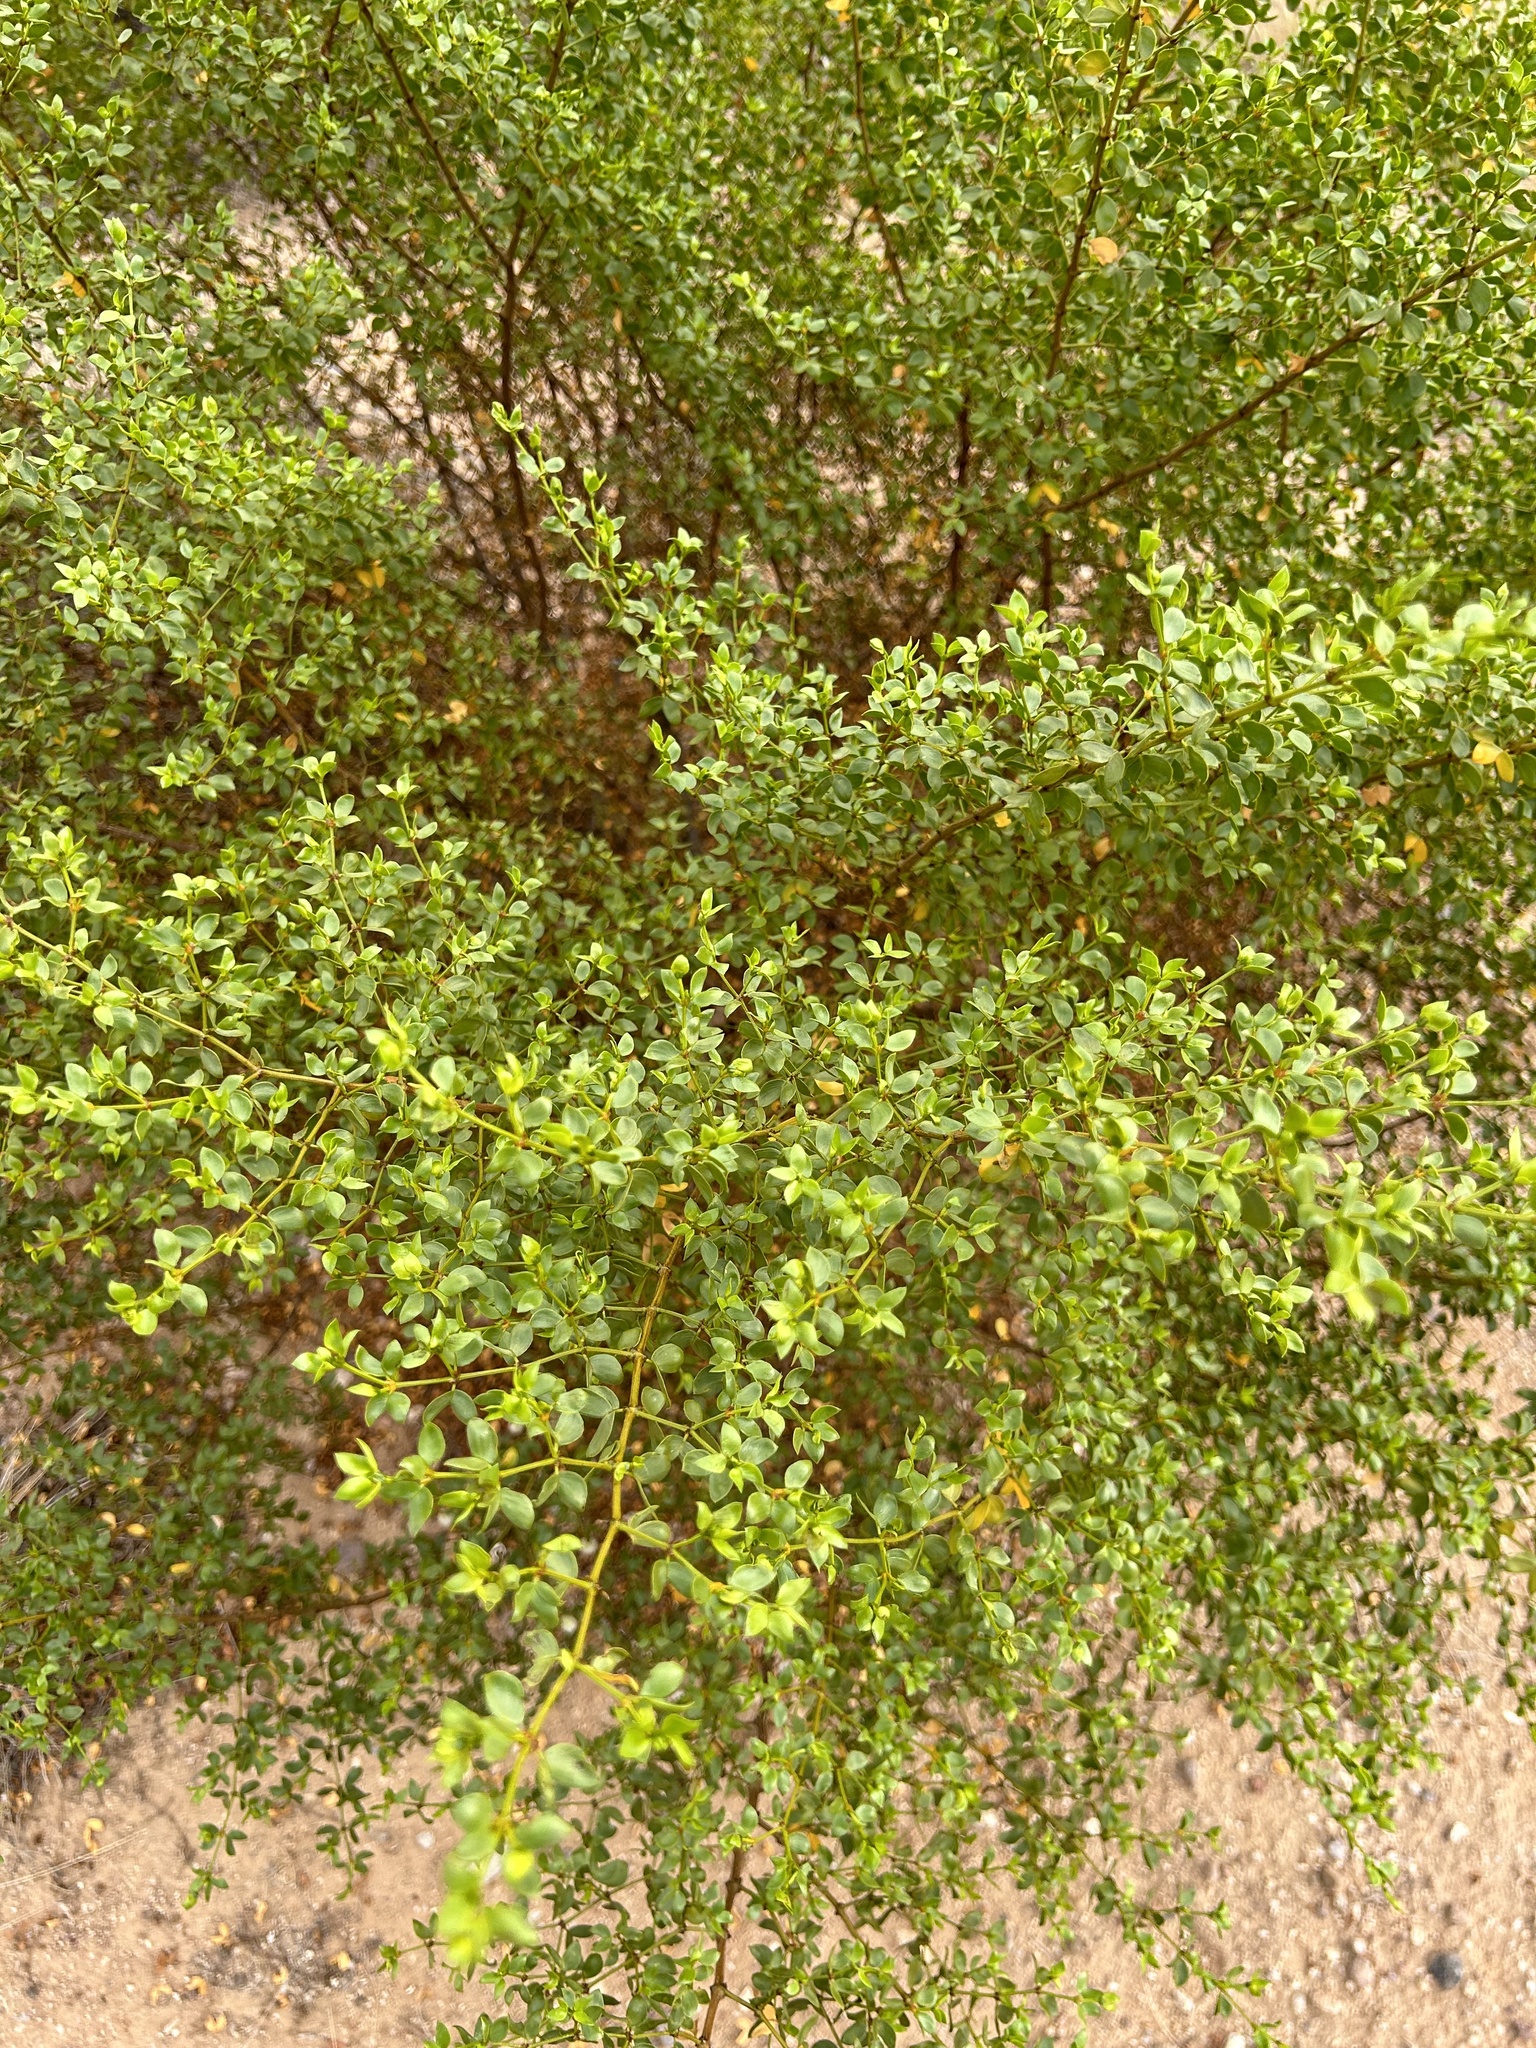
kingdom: Plantae
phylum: Tracheophyta
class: Magnoliopsida
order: Zygophyllales
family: Zygophyllaceae
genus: Larrea
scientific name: Larrea tridentata
